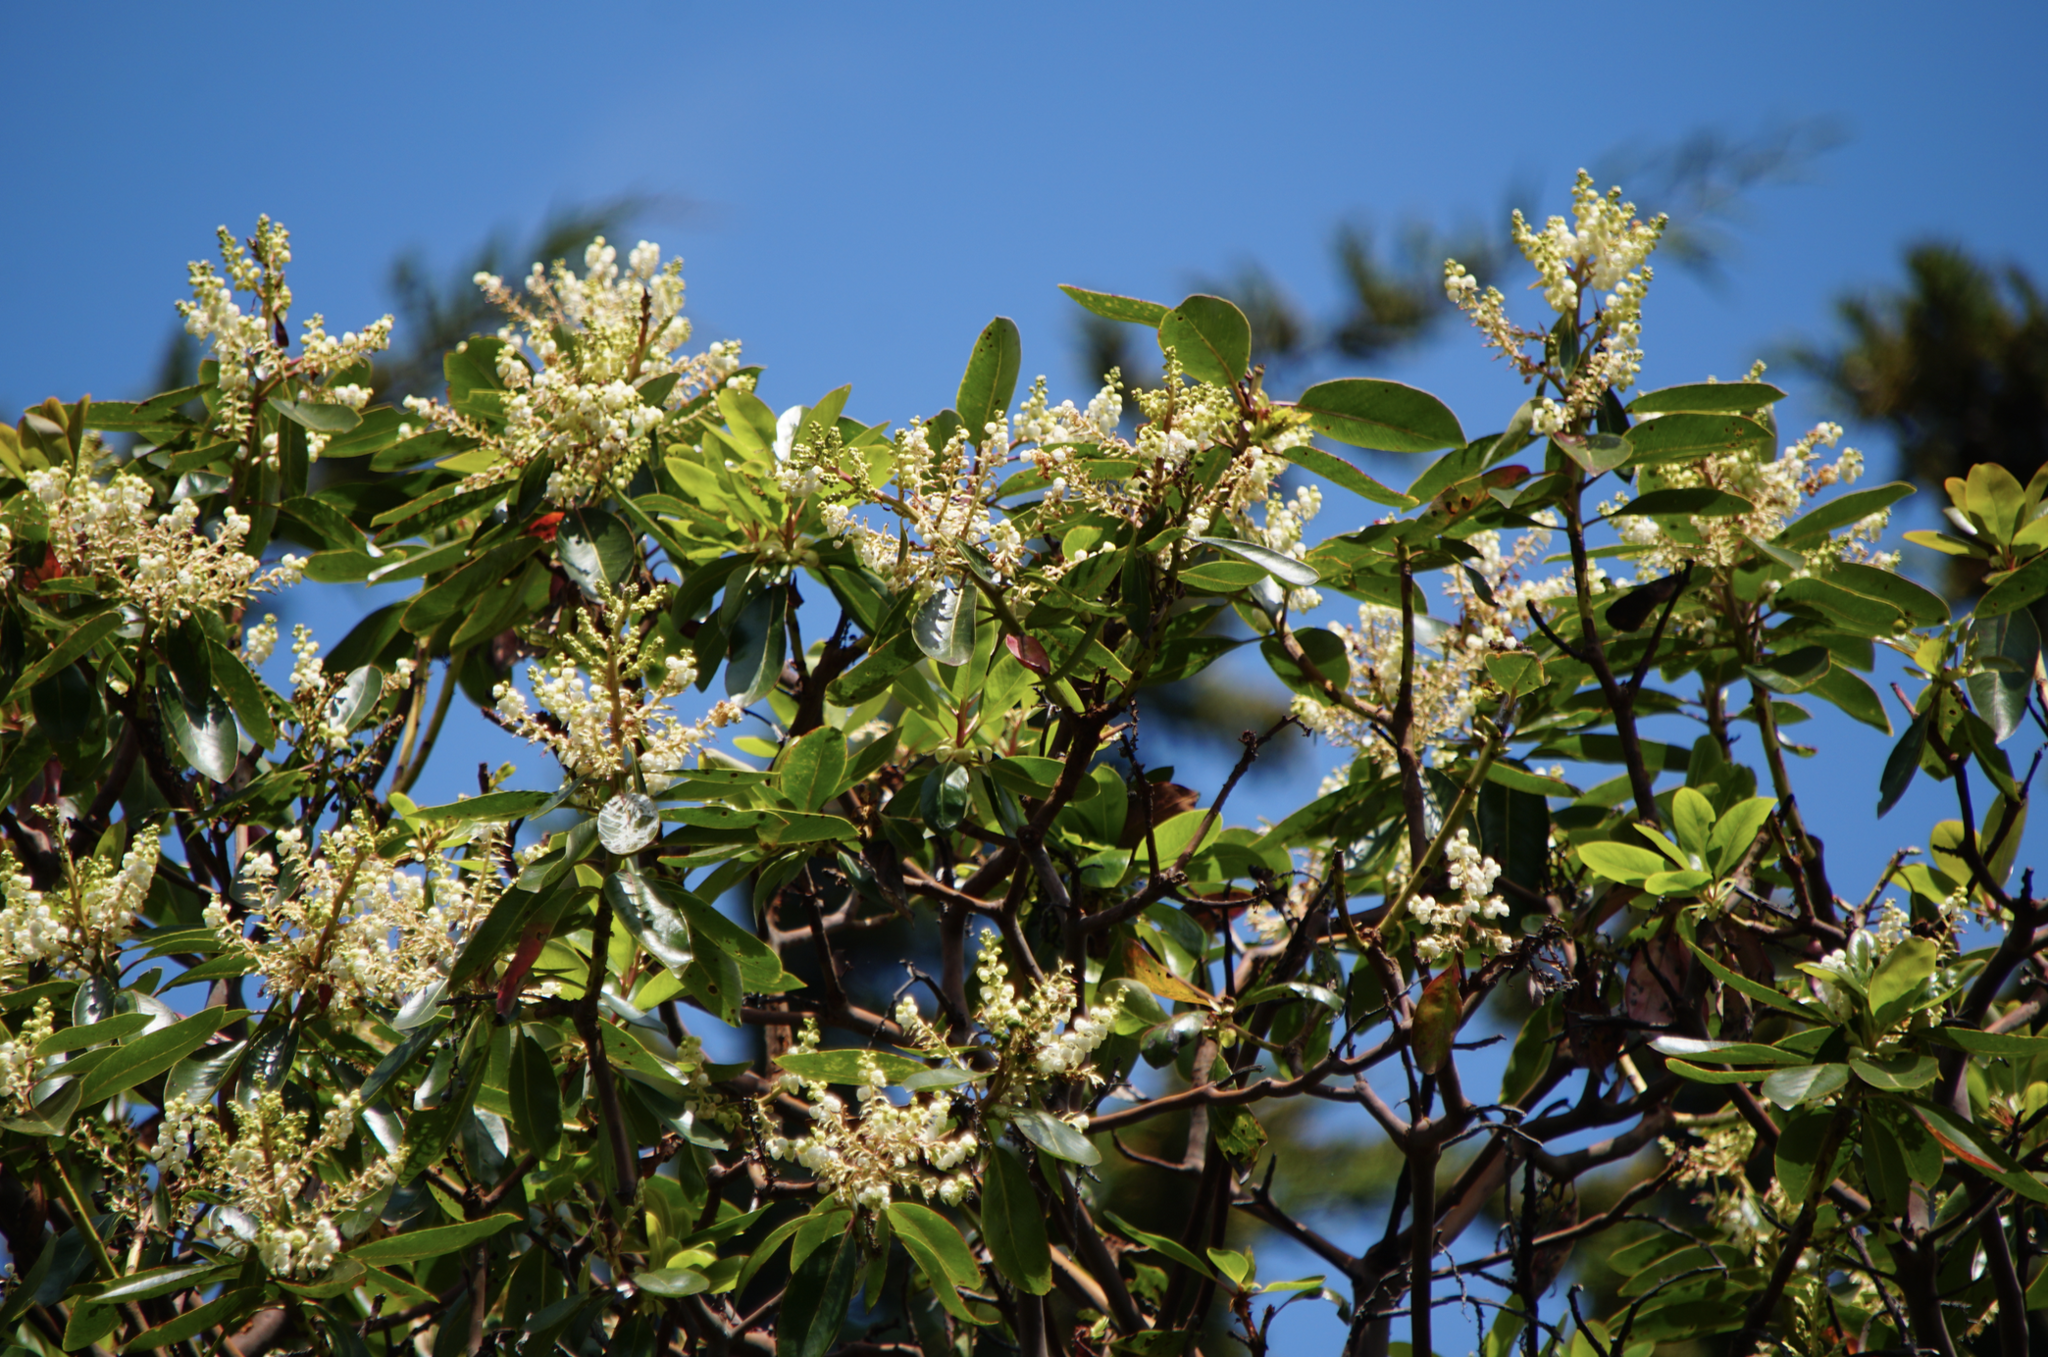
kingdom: Plantae
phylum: Tracheophyta
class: Magnoliopsida
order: Ericales
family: Ericaceae
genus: Arbutus
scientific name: Arbutus menziesii
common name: Pacific madrone
